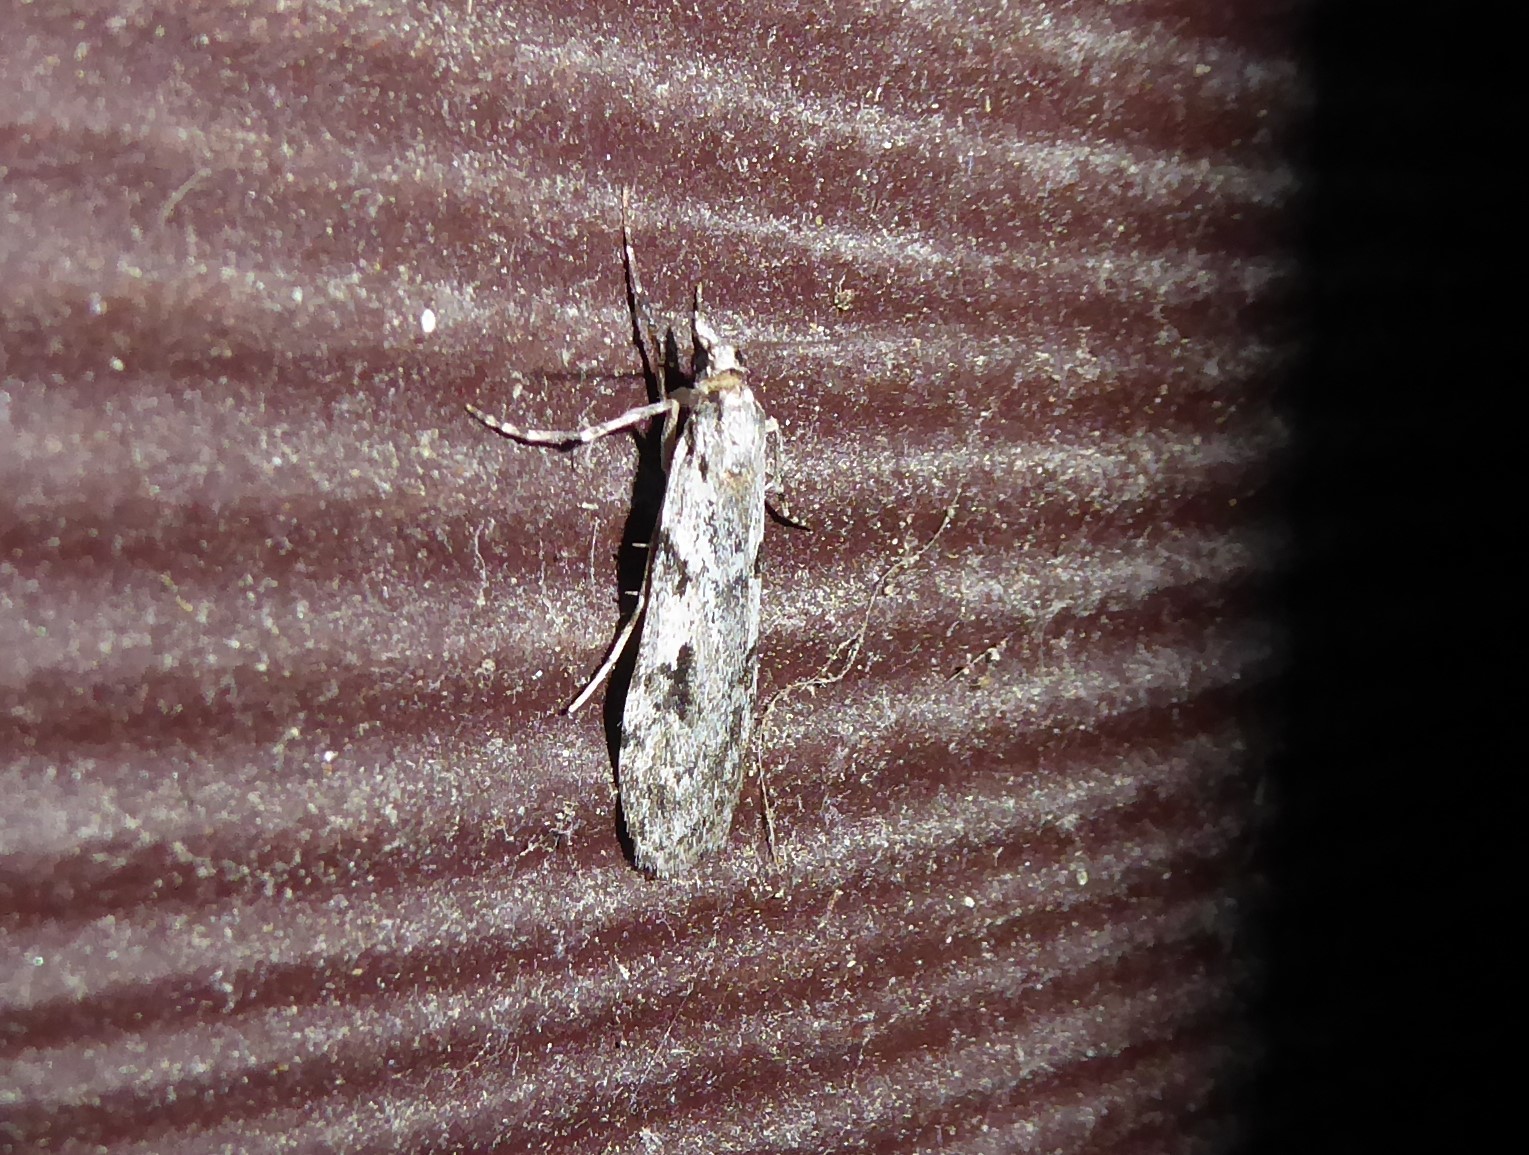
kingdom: Animalia
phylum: Arthropoda
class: Insecta
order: Lepidoptera
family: Crambidae
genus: Scoparia
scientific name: Scoparia halopis
